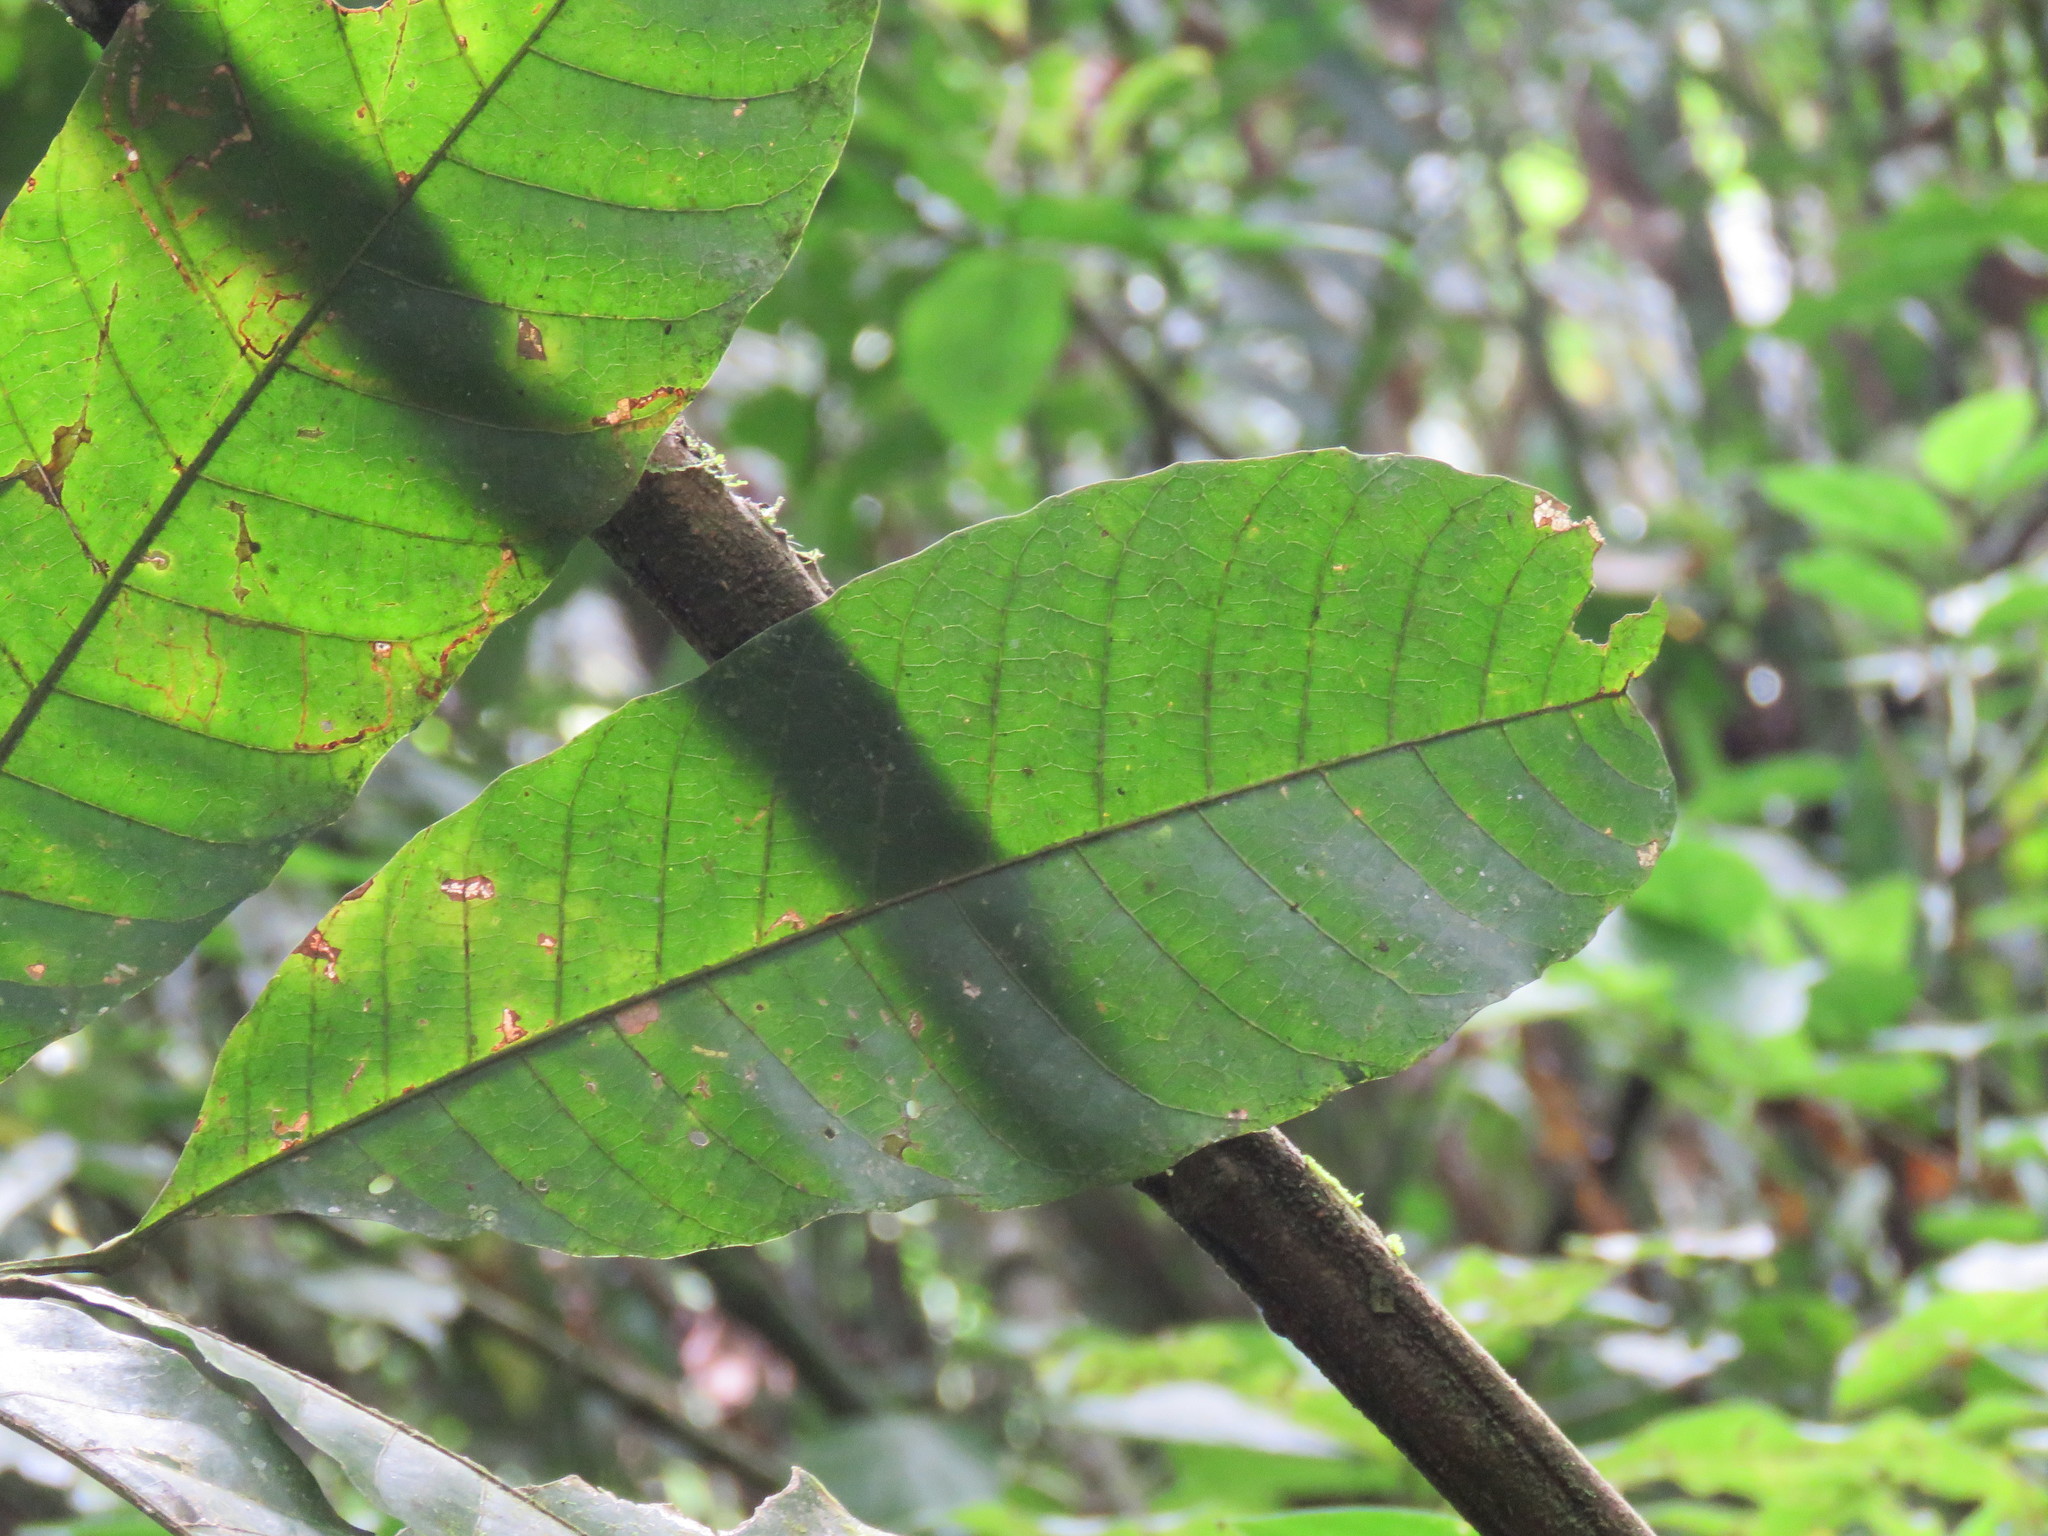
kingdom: Plantae
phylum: Tracheophyta
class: Magnoliopsida
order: Sapindales
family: Sapindaceae
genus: Cupania
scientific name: Cupania dentata
